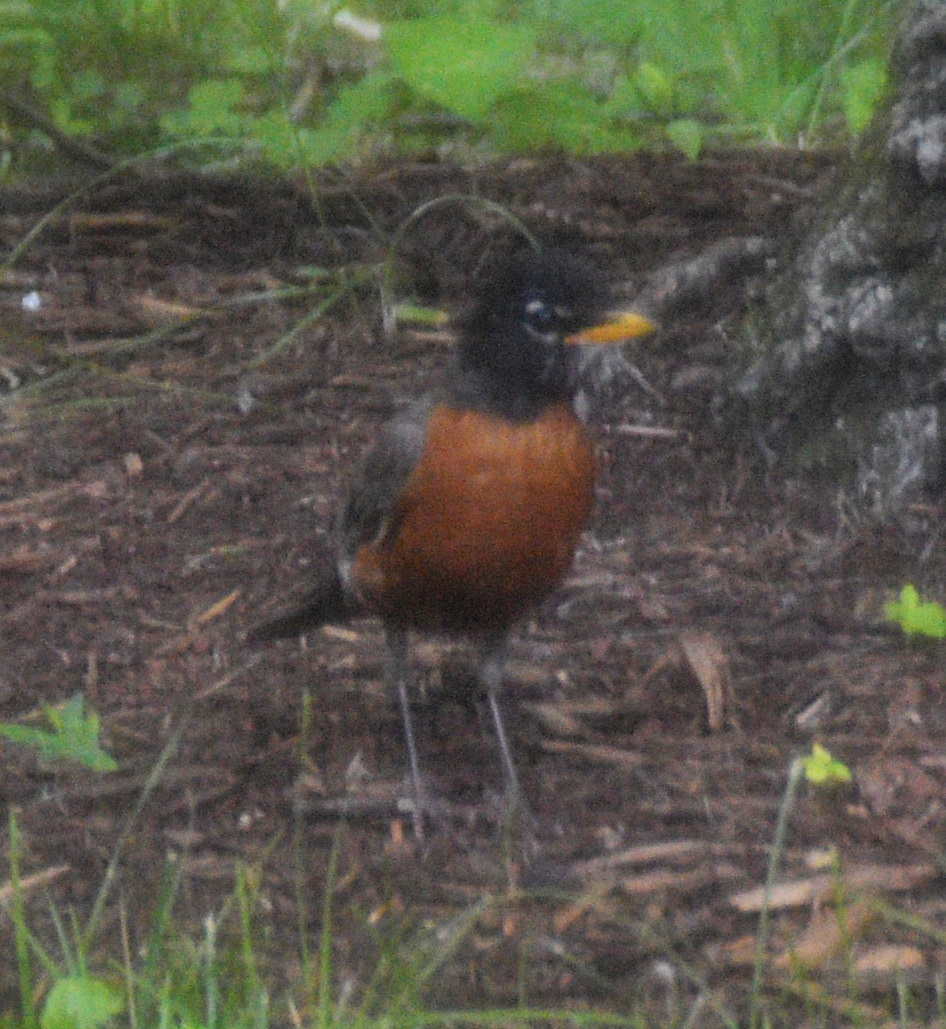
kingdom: Animalia
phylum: Chordata
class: Aves
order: Passeriformes
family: Turdidae
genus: Turdus
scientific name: Turdus migratorius
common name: American robin
